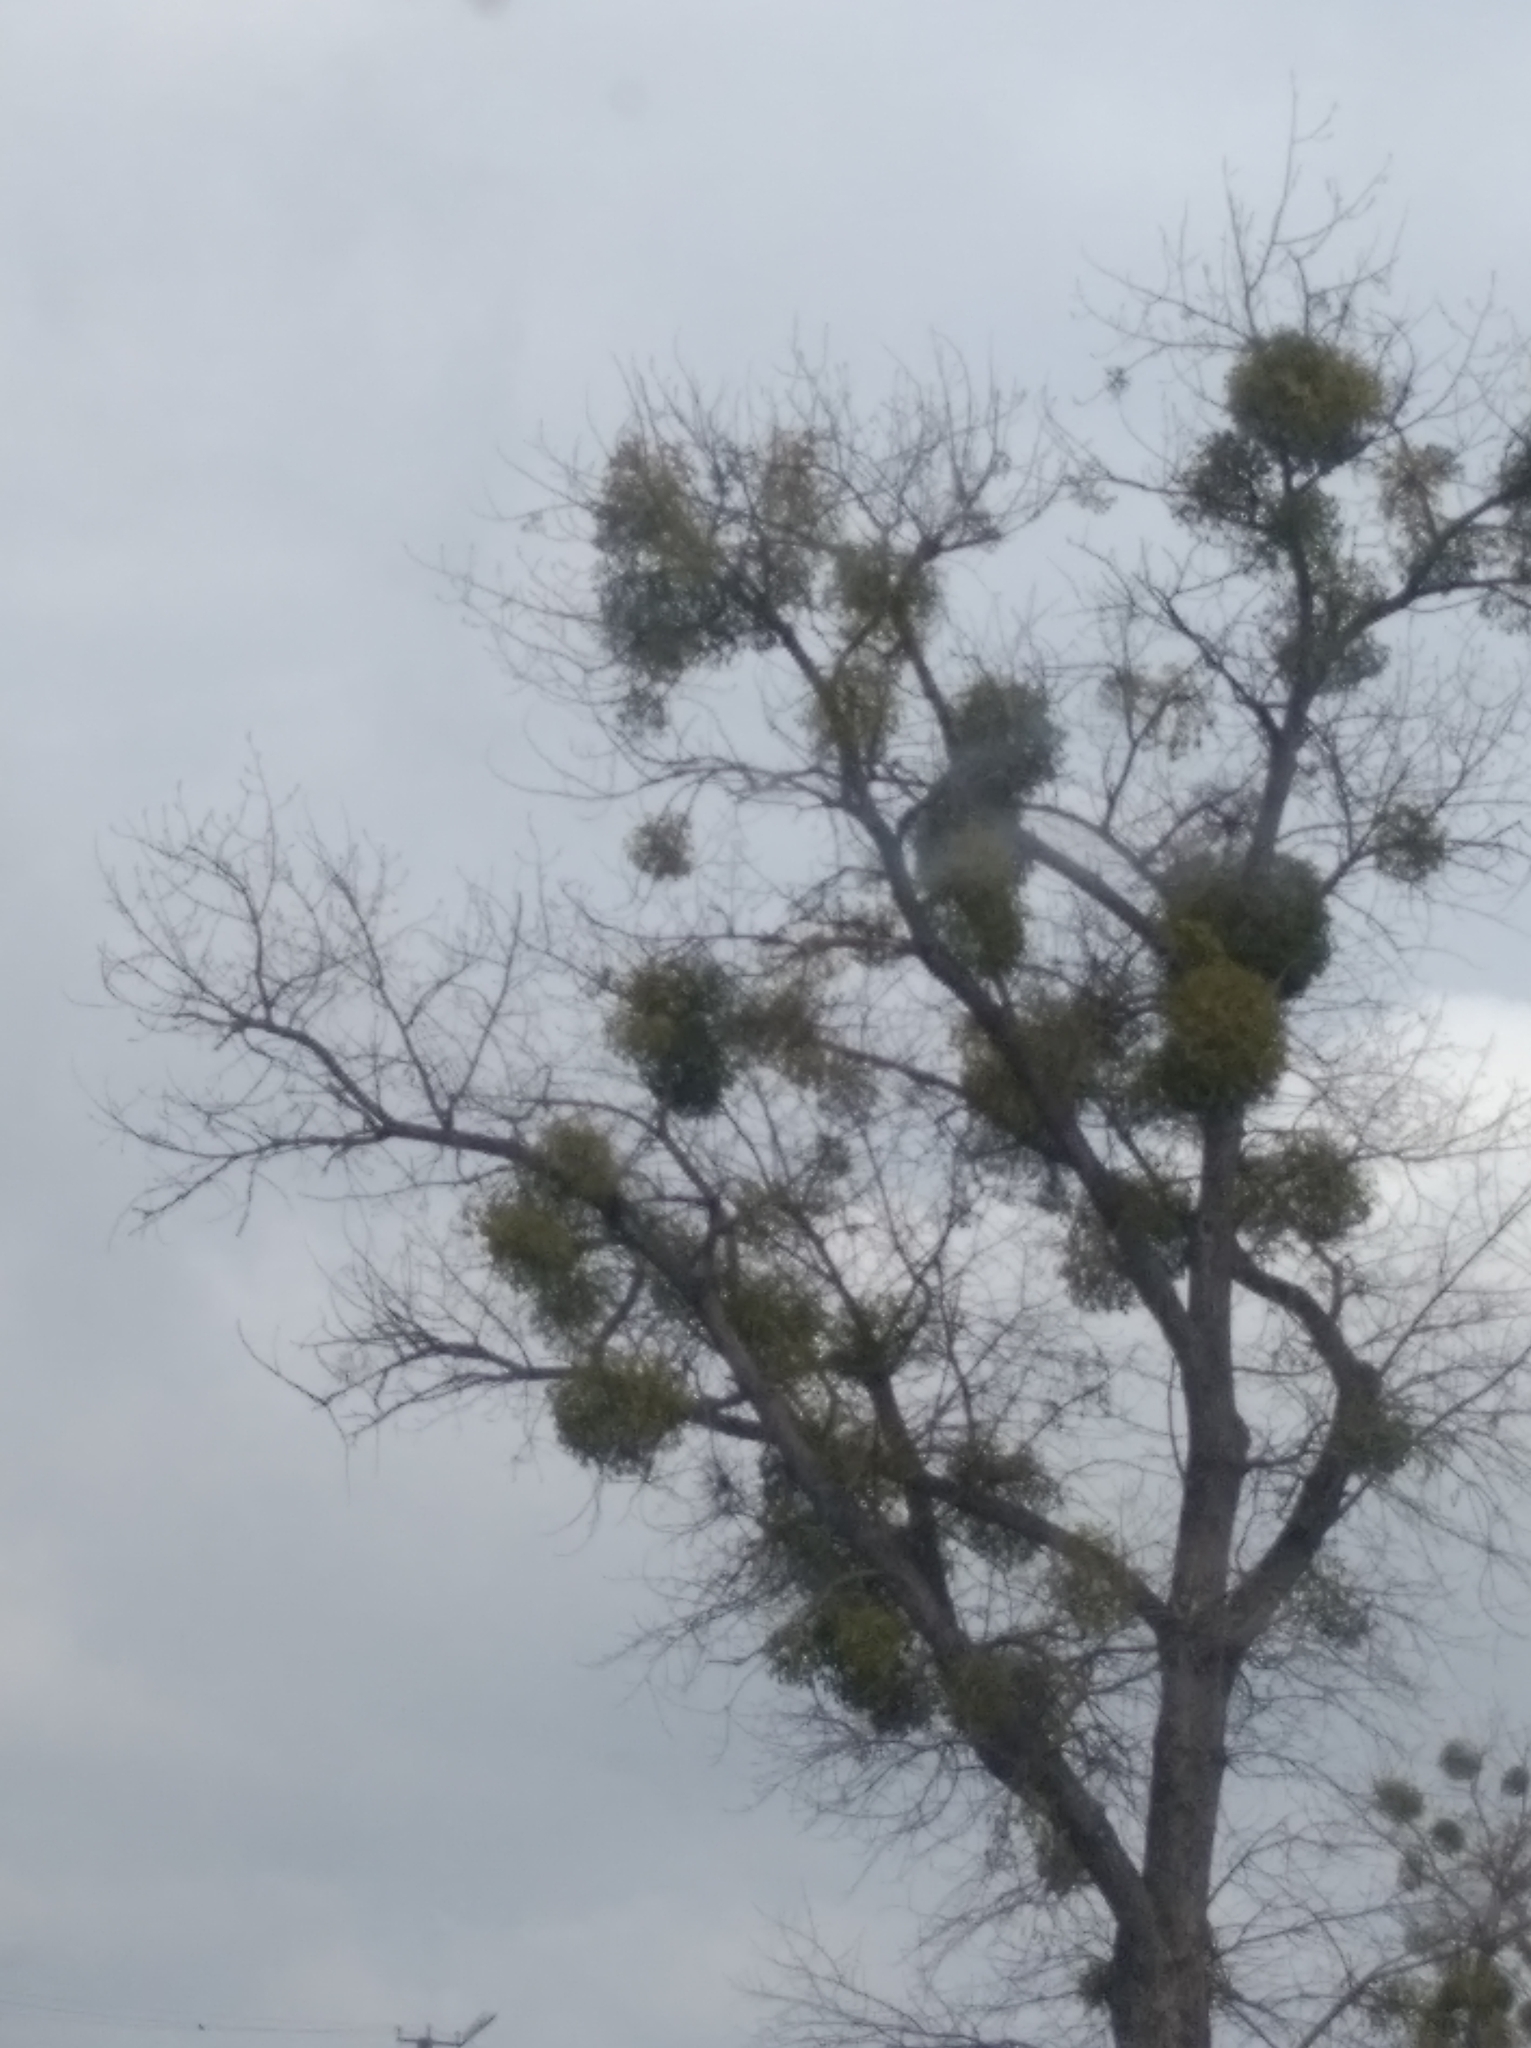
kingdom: Plantae
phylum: Tracheophyta
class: Magnoliopsida
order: Santalales
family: Viscaceae
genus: Viscum
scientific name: Viscum album
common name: Mistletoe
